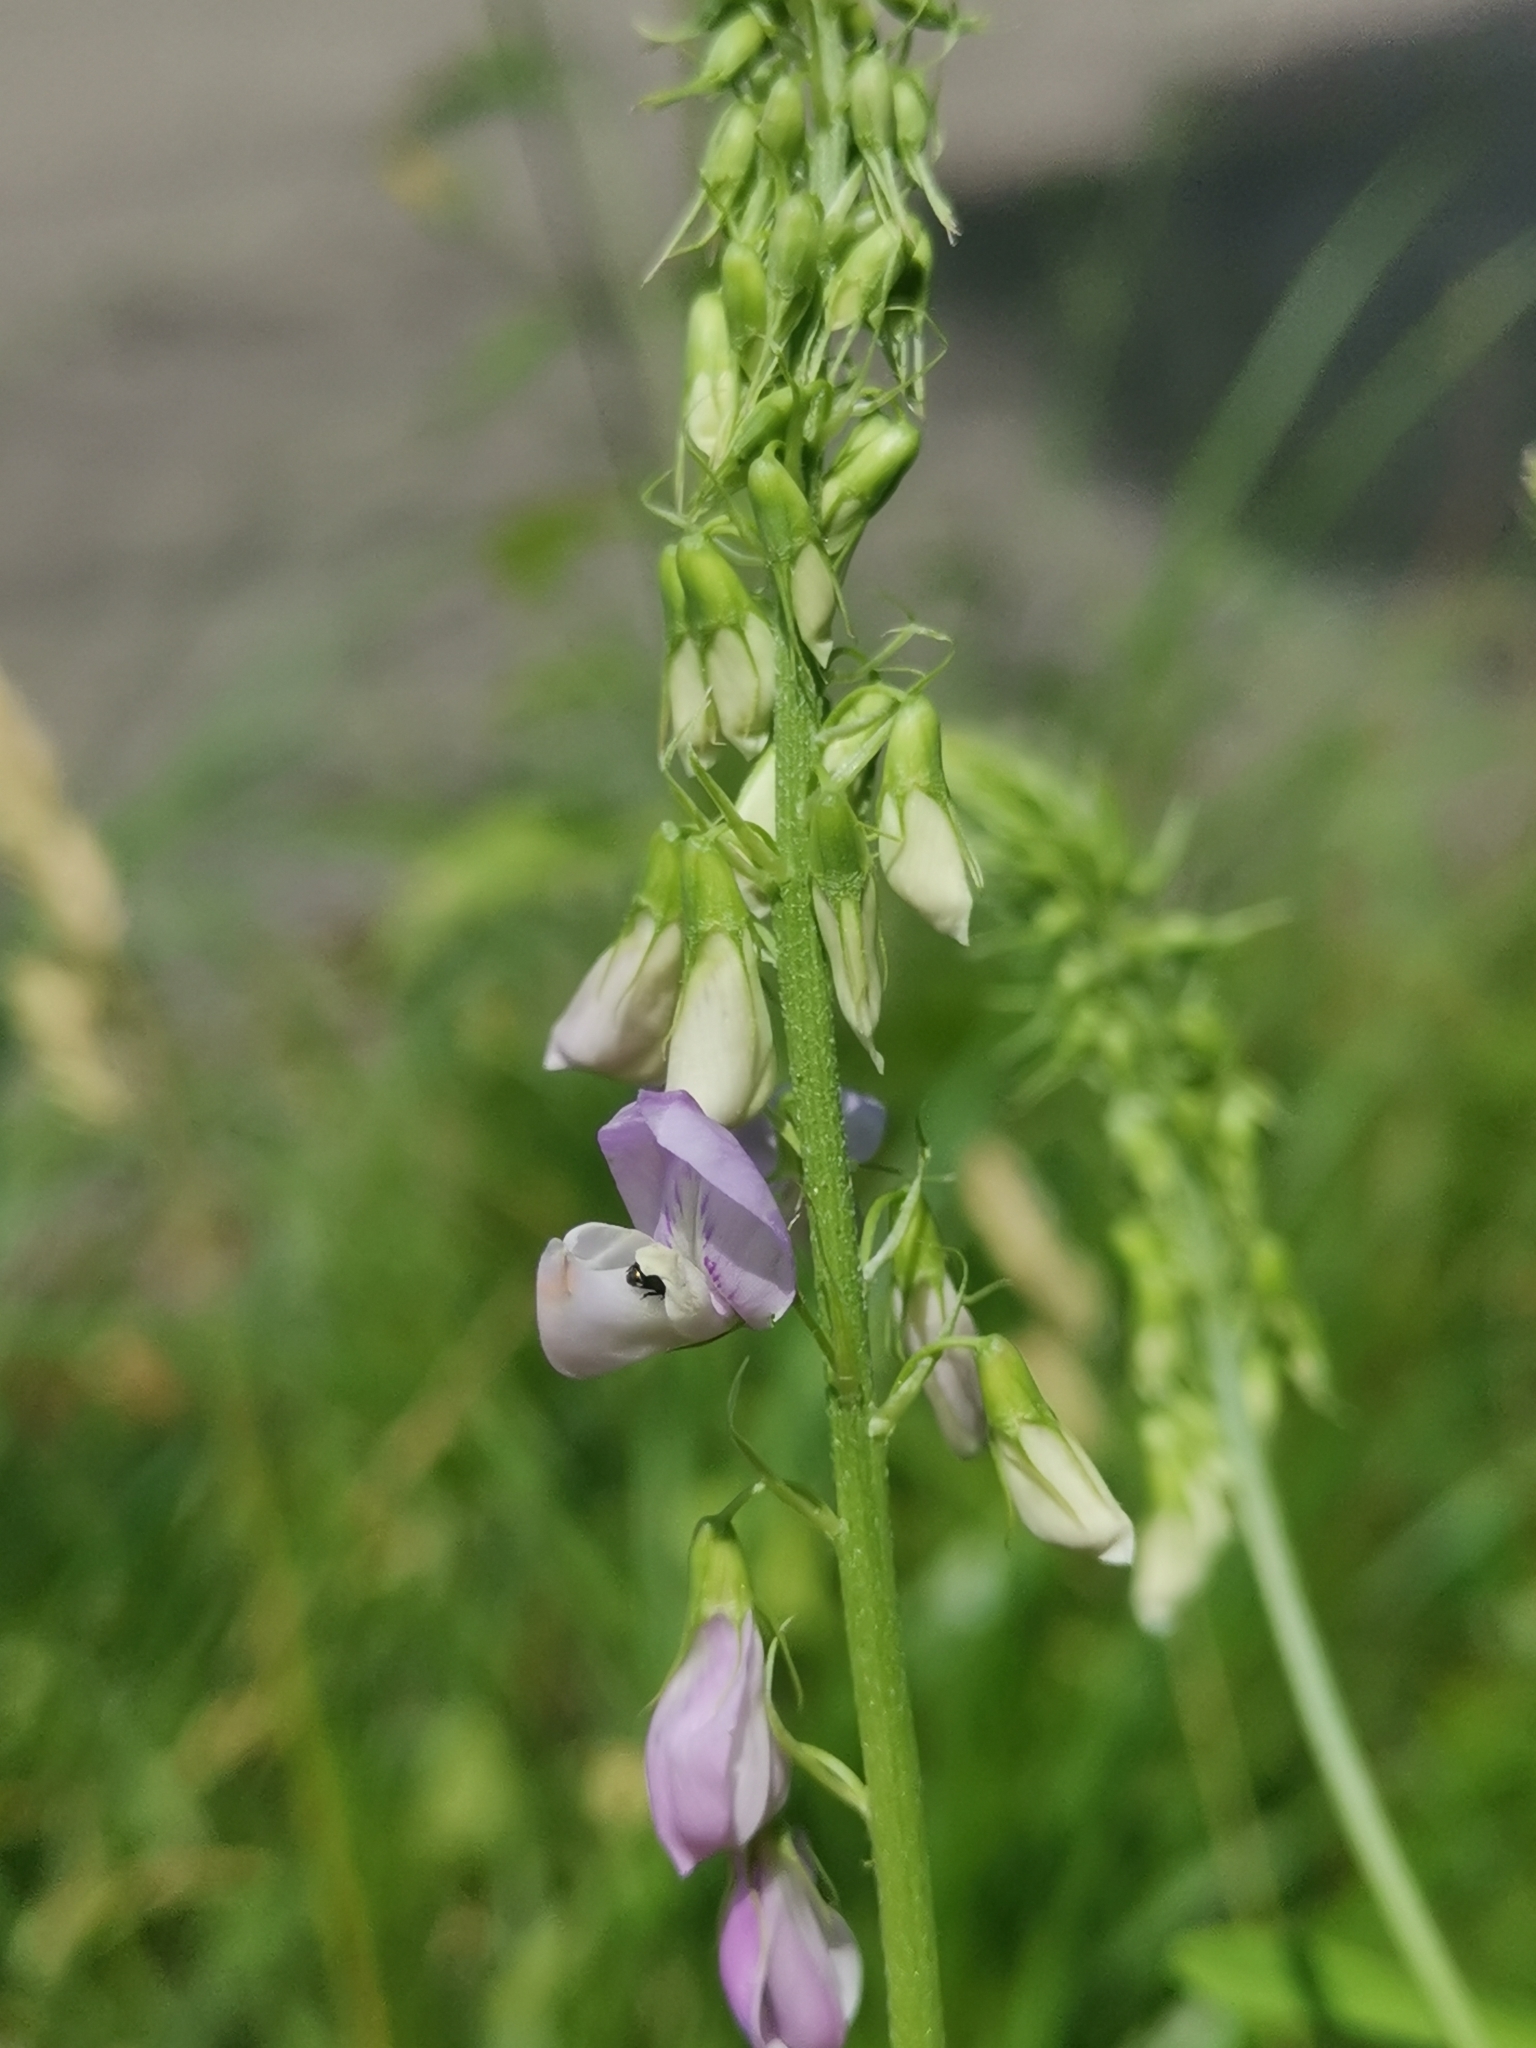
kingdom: Plantae
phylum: Tracheophyta
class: Magnoliopsida
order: Fabales
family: Fabaceae
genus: Galega
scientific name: Galega officinalis
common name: Goat's-rue
